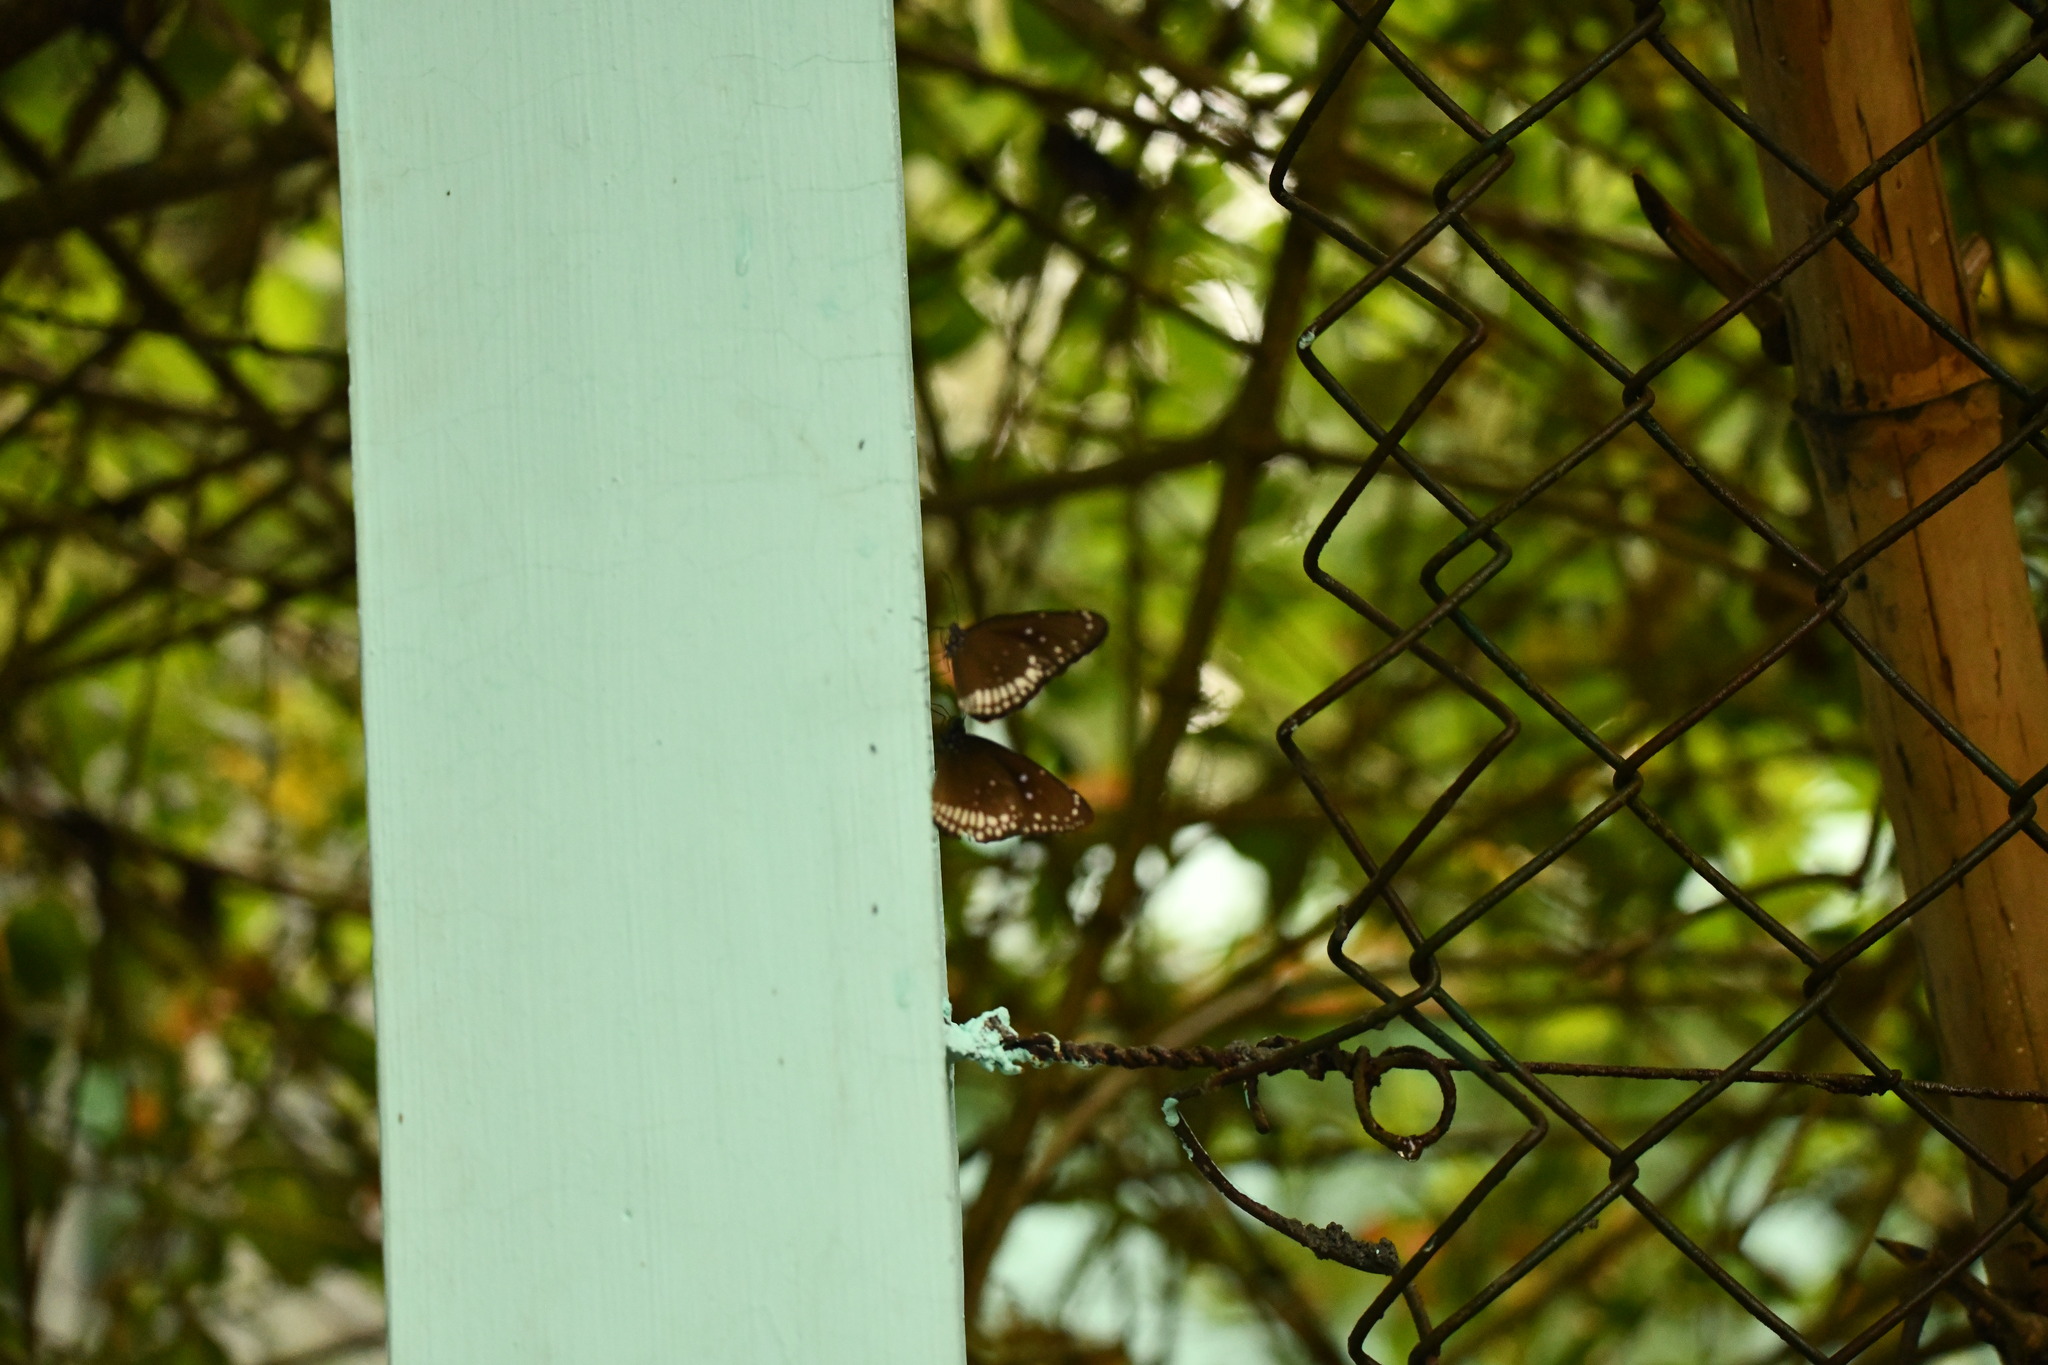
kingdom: Animalia
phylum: Arthropoda
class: Insecta
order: Lepidoptera
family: Nymphalidae
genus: Euploea
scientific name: Euploea core
